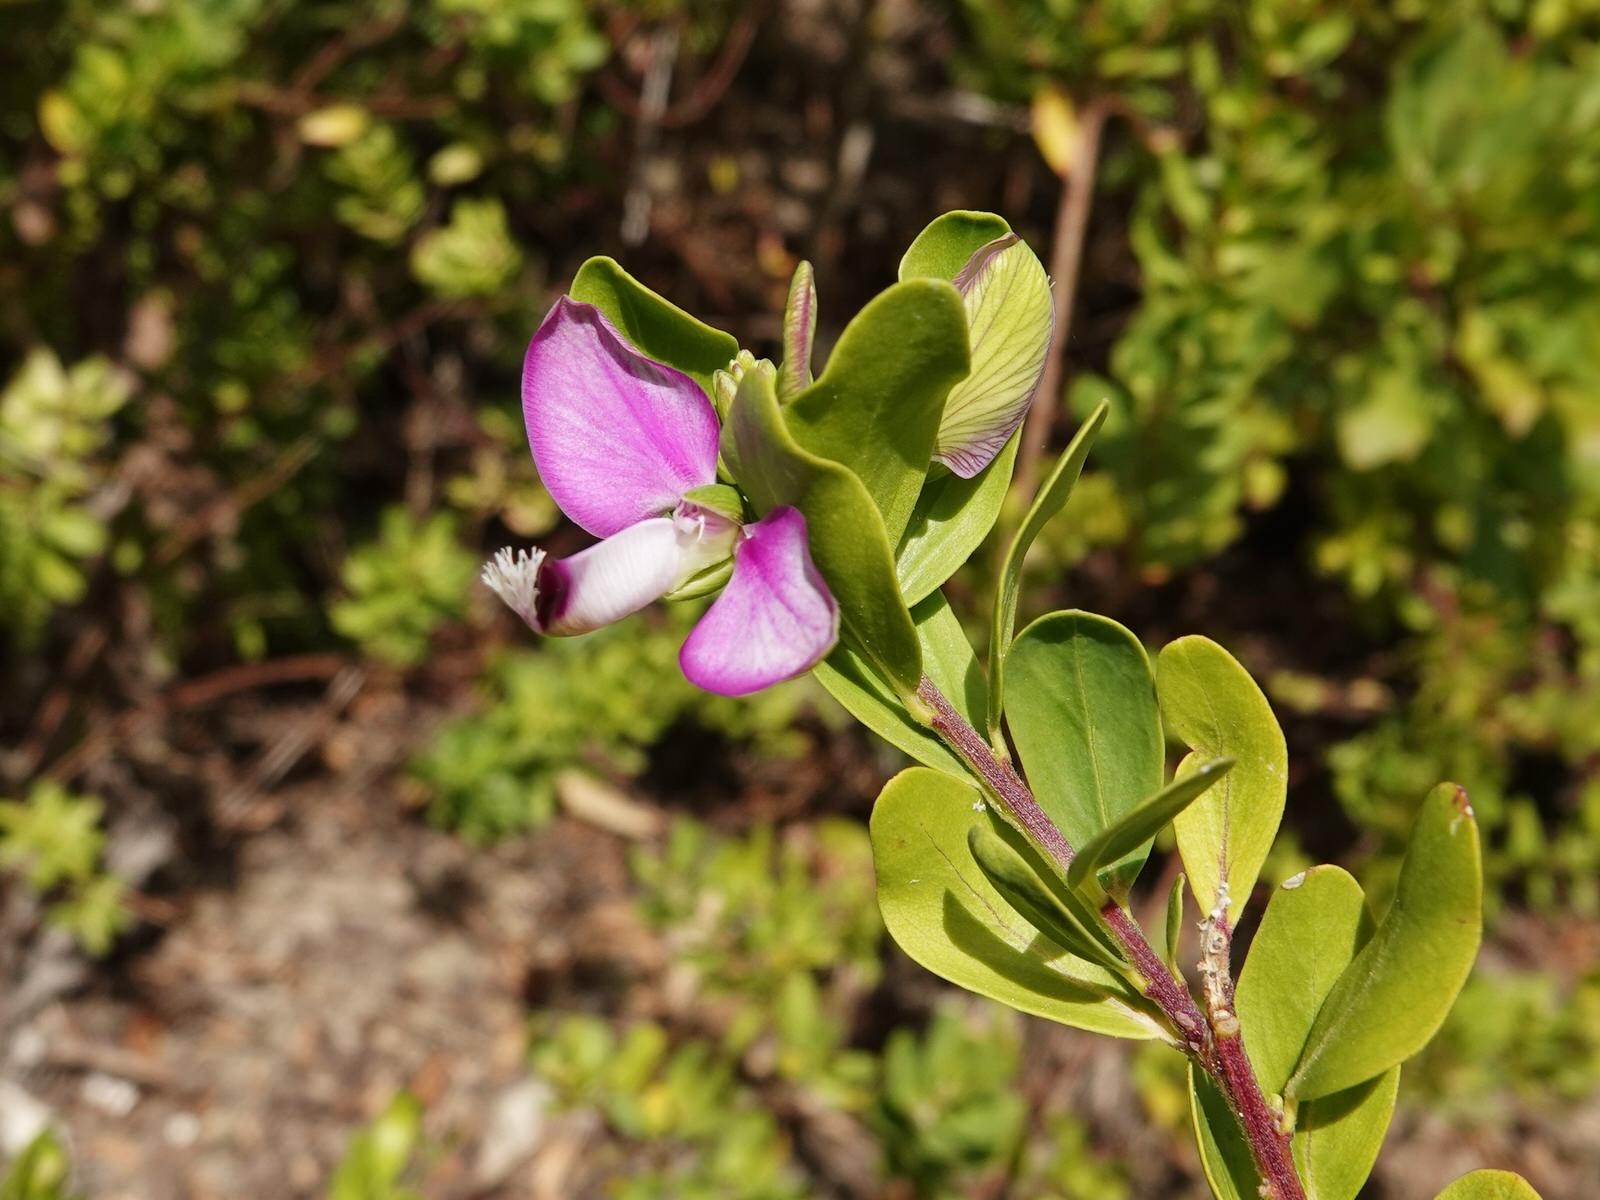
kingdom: Plantae
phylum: Tracheophyta
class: Magnoliopsida
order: Fabales
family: Polygalaceae
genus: Polygala
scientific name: Polygala myrtifolia
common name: Myrtle-leaf milkwort
